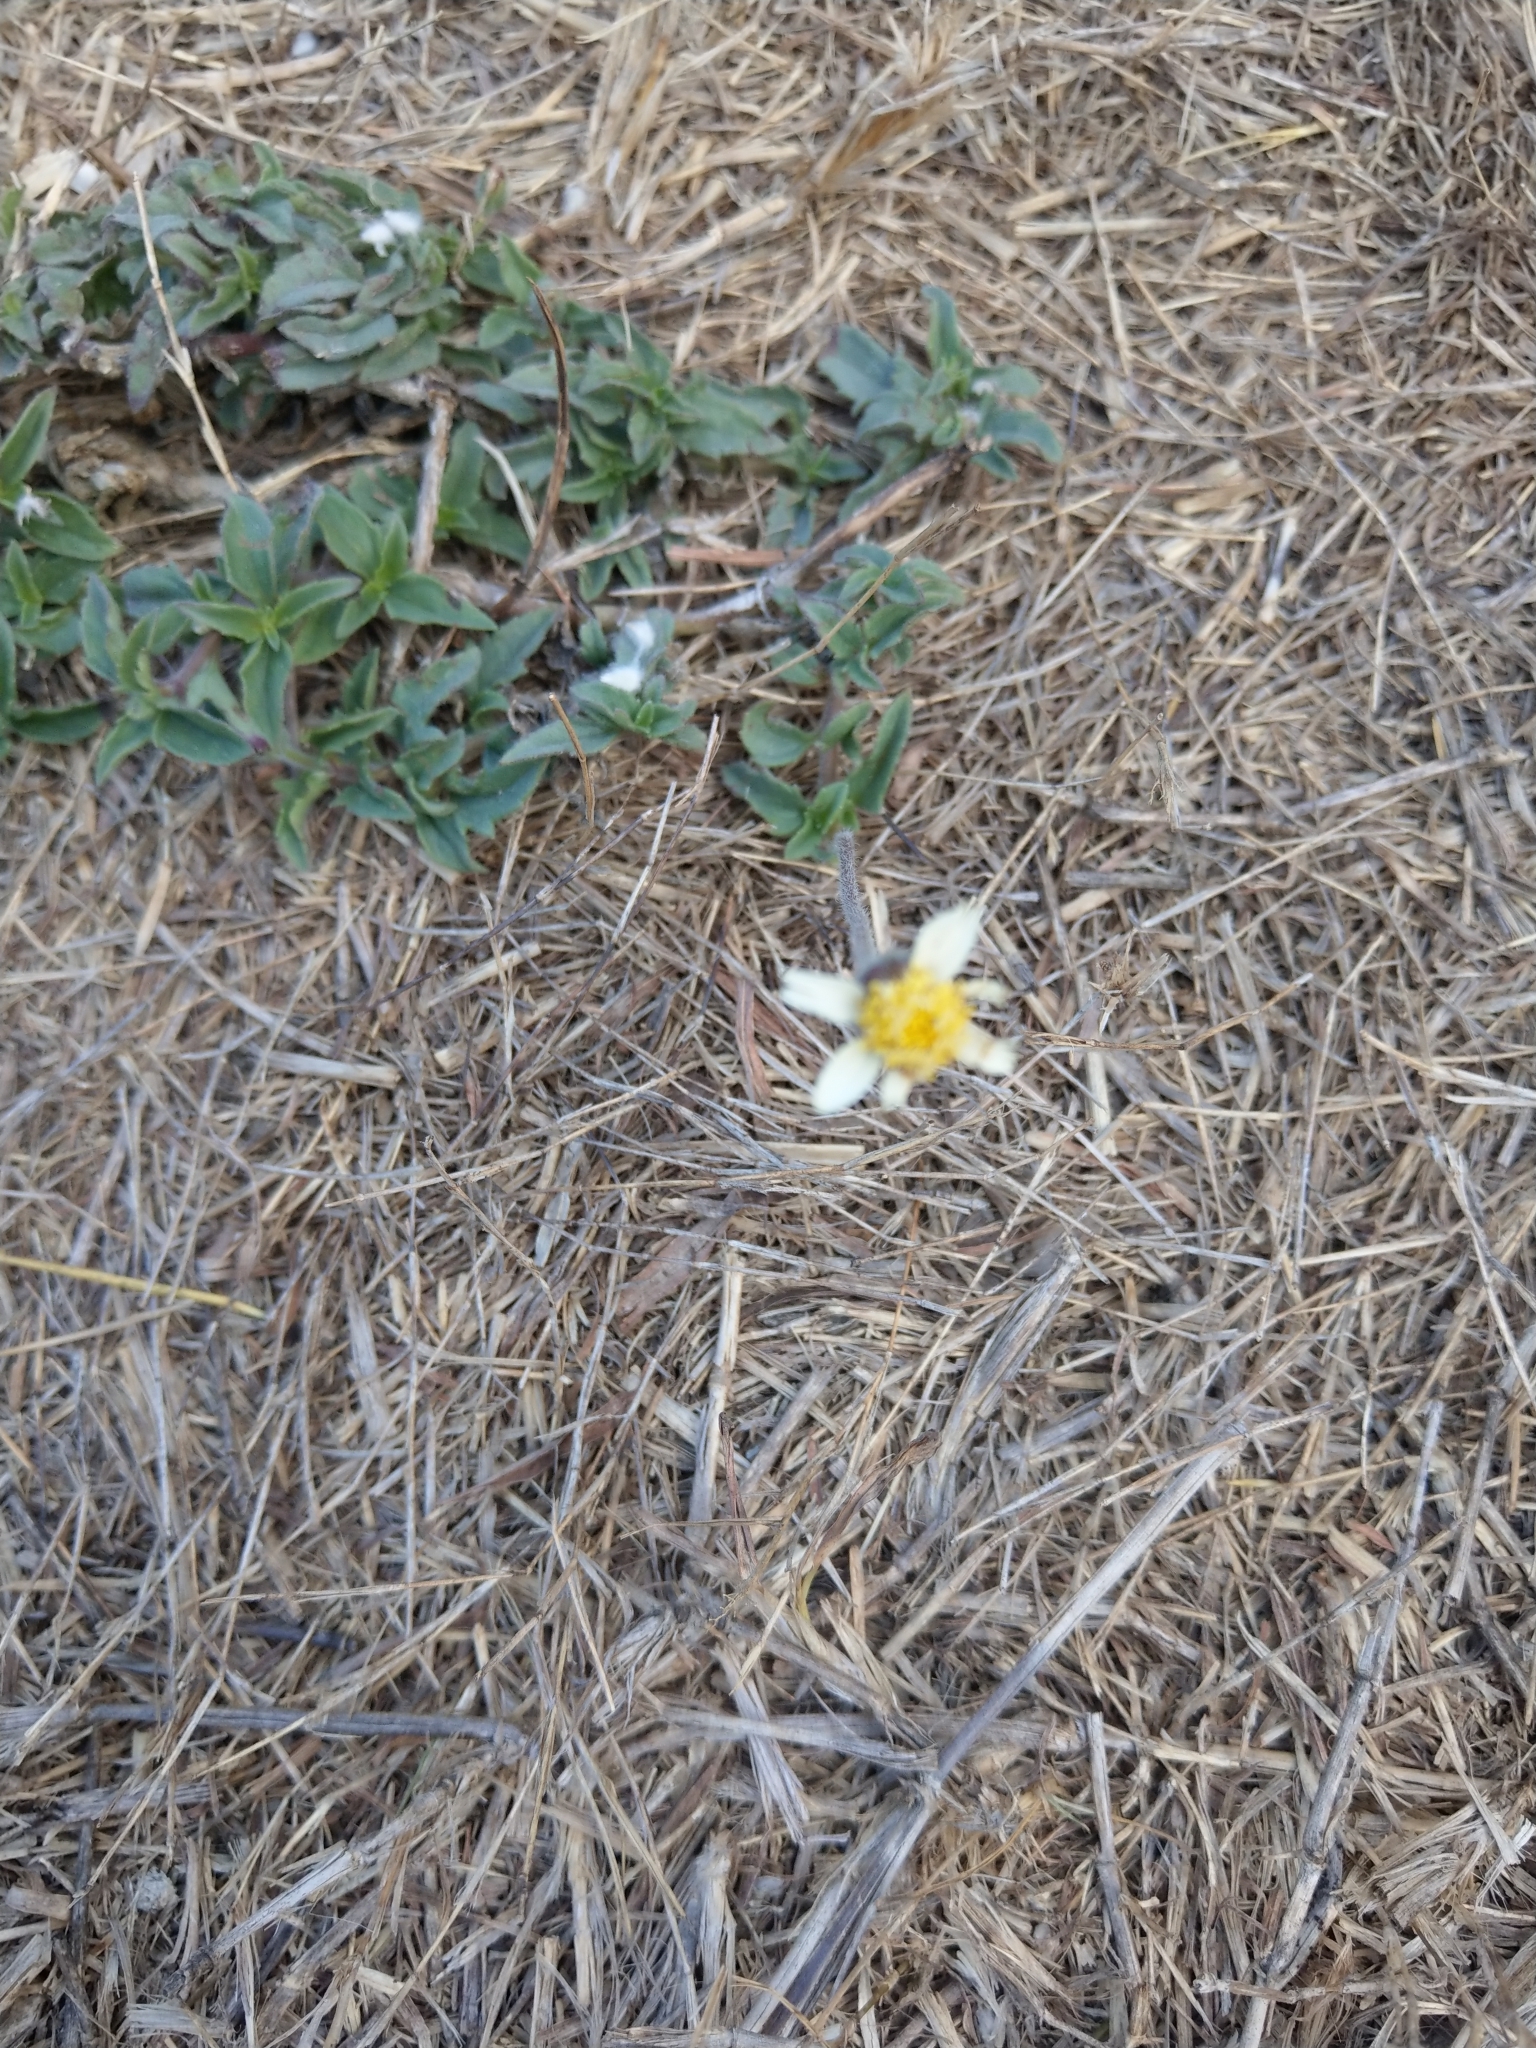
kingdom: Plantae
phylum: Tracheophyta
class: Magnoliopsida
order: Asterales
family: Asteraceae
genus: Tridax
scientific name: Tridax procumbens
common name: Coatbuttons
